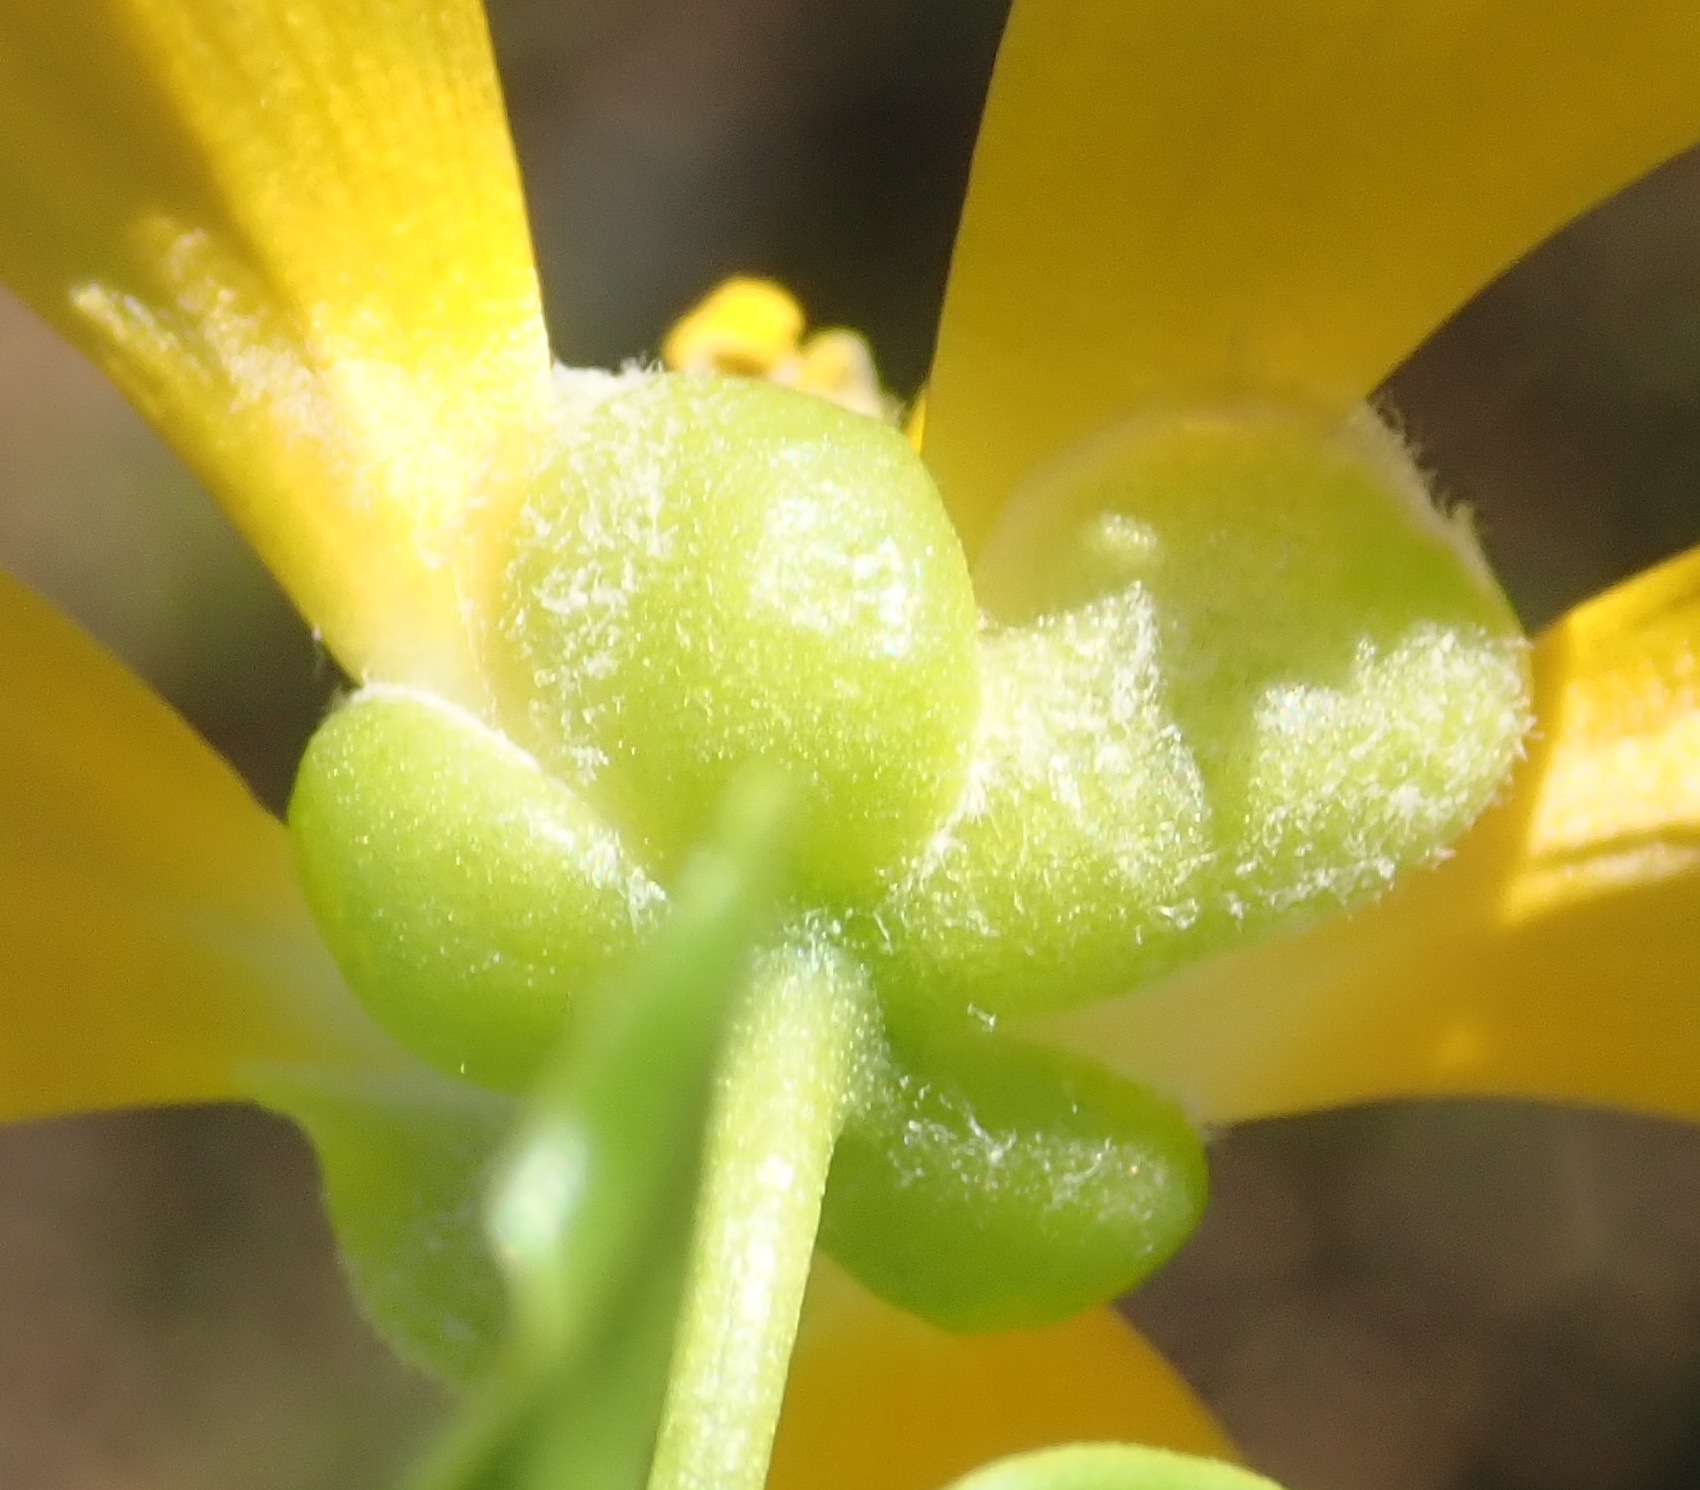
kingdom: Plantae
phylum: Tracheophyta
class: Magnoliopsida
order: Zygophyllales
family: Zygophyllaceae
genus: Roepera
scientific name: Roepera foetida
